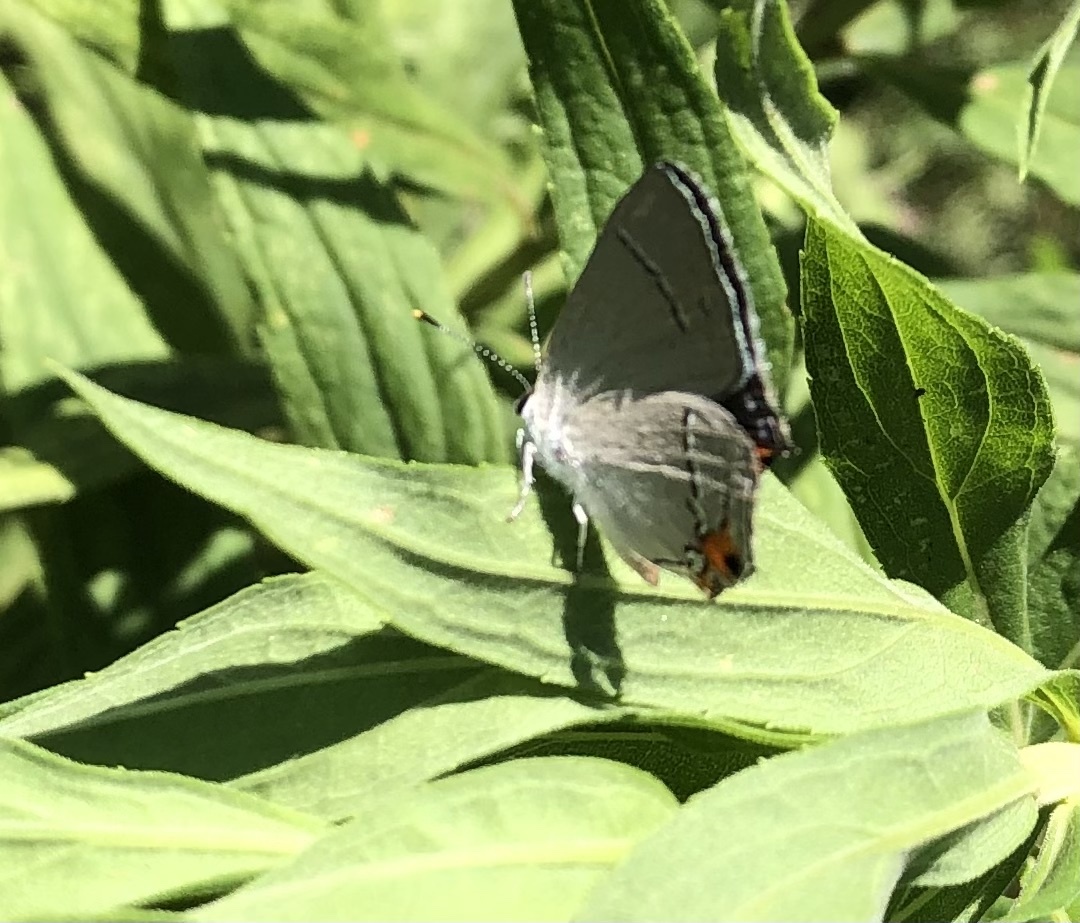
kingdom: Animalia
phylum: Arthropoda
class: Insecta
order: Lepidoptera
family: Lycaenidae
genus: Strymon
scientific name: Strymon melinus
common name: Gray hairstreak
